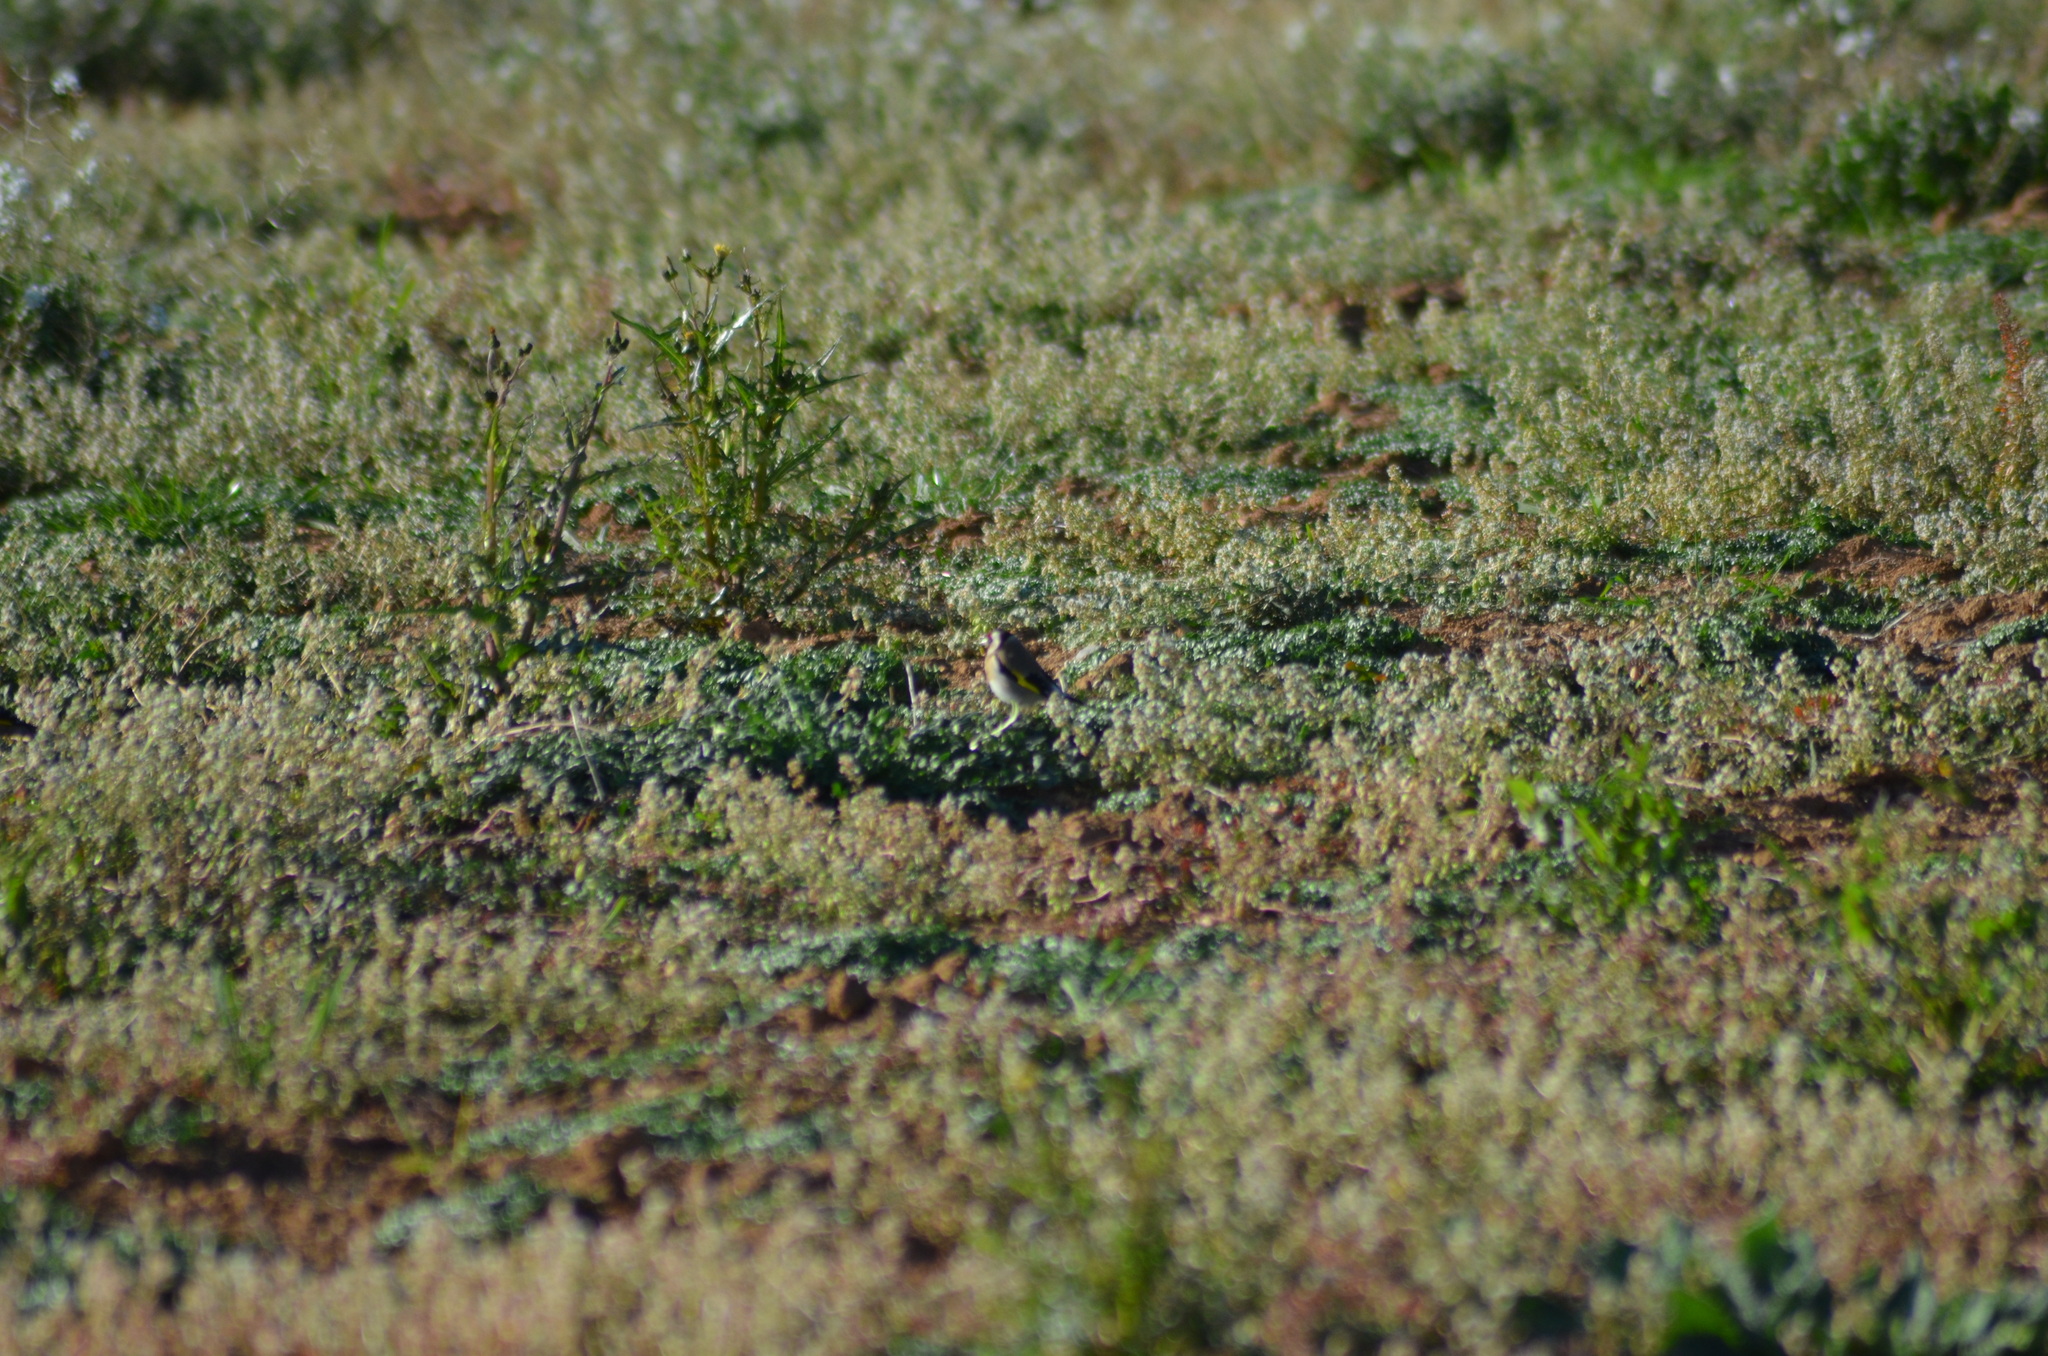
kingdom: Animalia
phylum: Chordata
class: Aves
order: Passeriformes
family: Fringillidae
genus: Carduelis
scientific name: Carduelis carduelis
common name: European goldfinch
